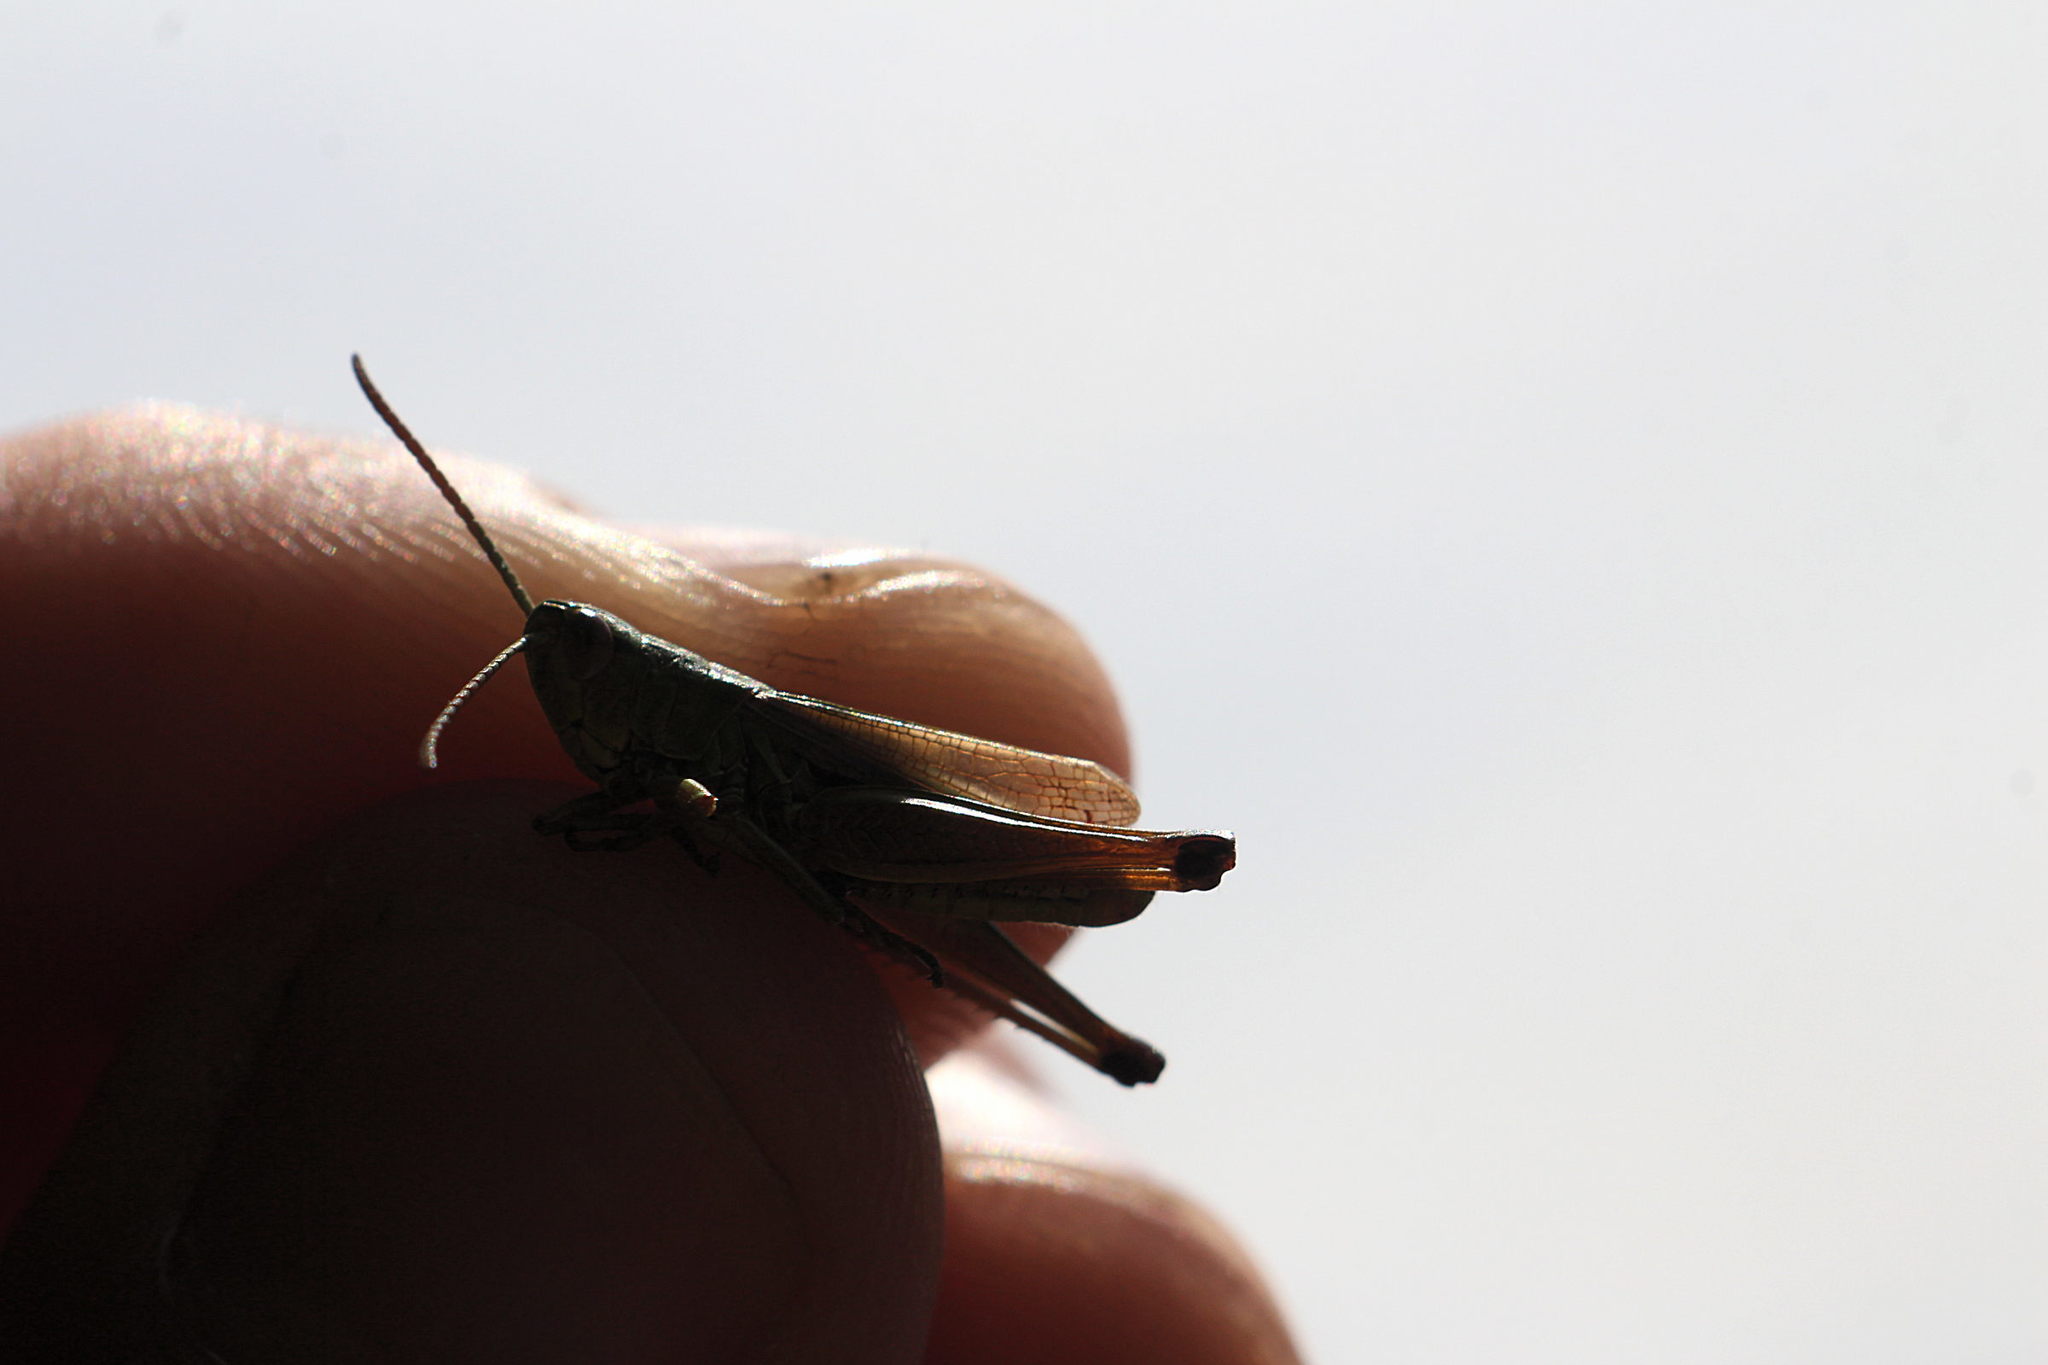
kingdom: Animalia
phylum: Arthropoda
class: Insecta
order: Orthoptera
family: Acrididae
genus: Pseudochorthippus
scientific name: Pseudochorthippus parallelus
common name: Meadow grasshopper
